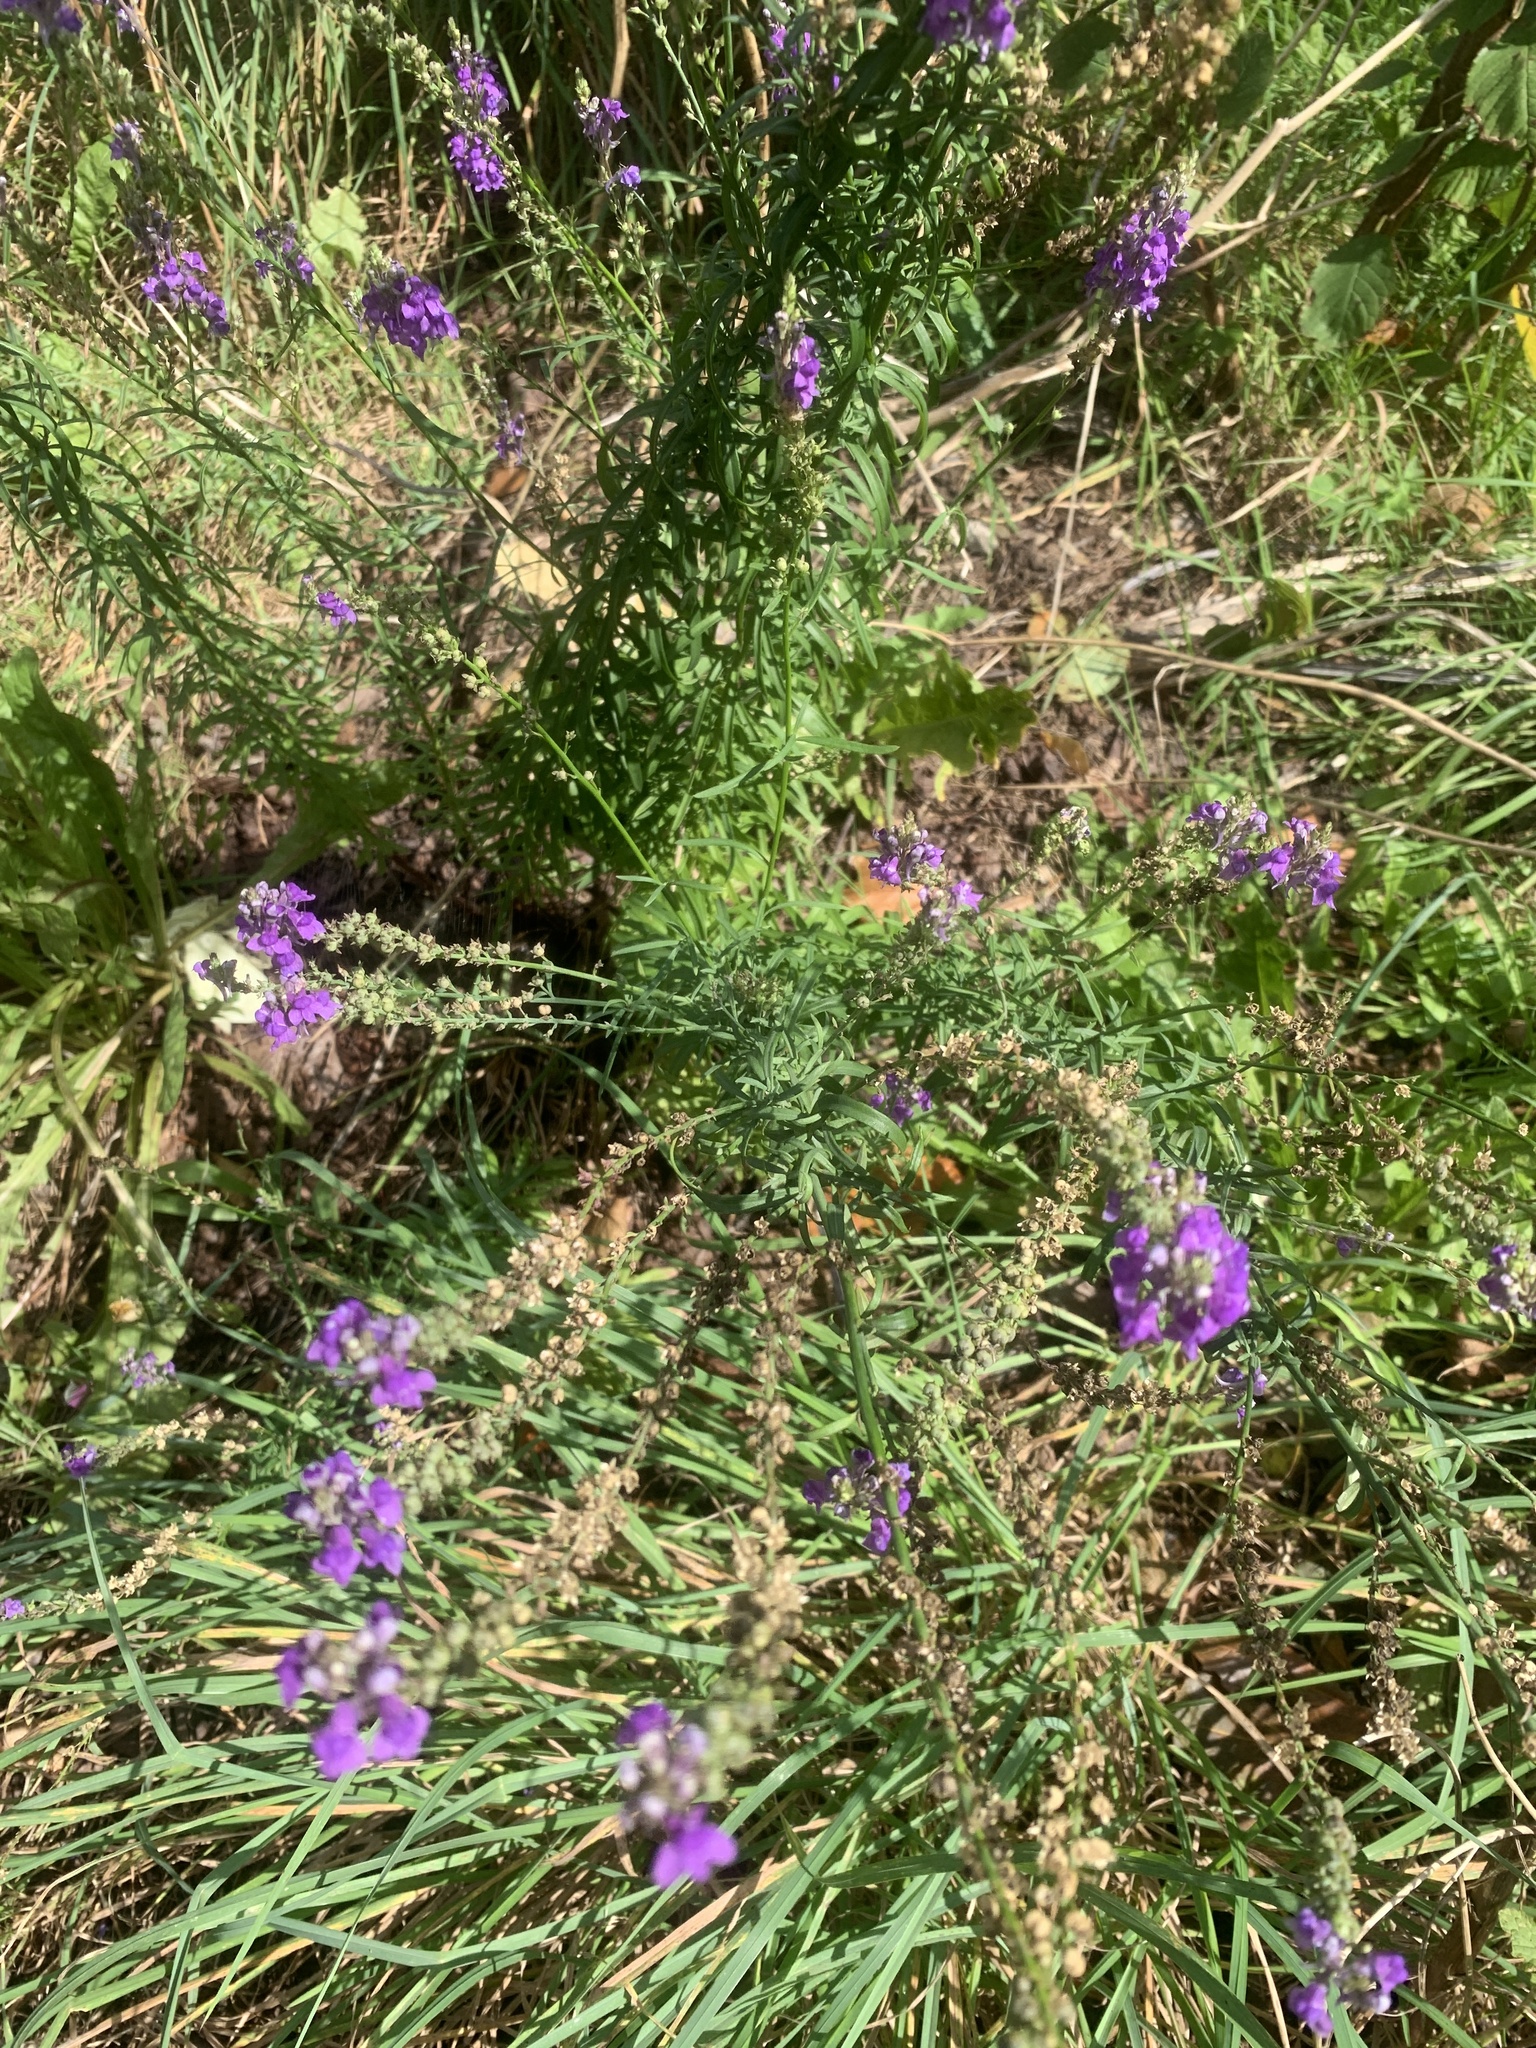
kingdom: Plantae
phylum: Tracheophyta
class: Magnoliopsida
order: Lamiales
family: Plantaginaceae
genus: Linaria
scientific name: Linaria purpurea
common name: Purple toadflax
